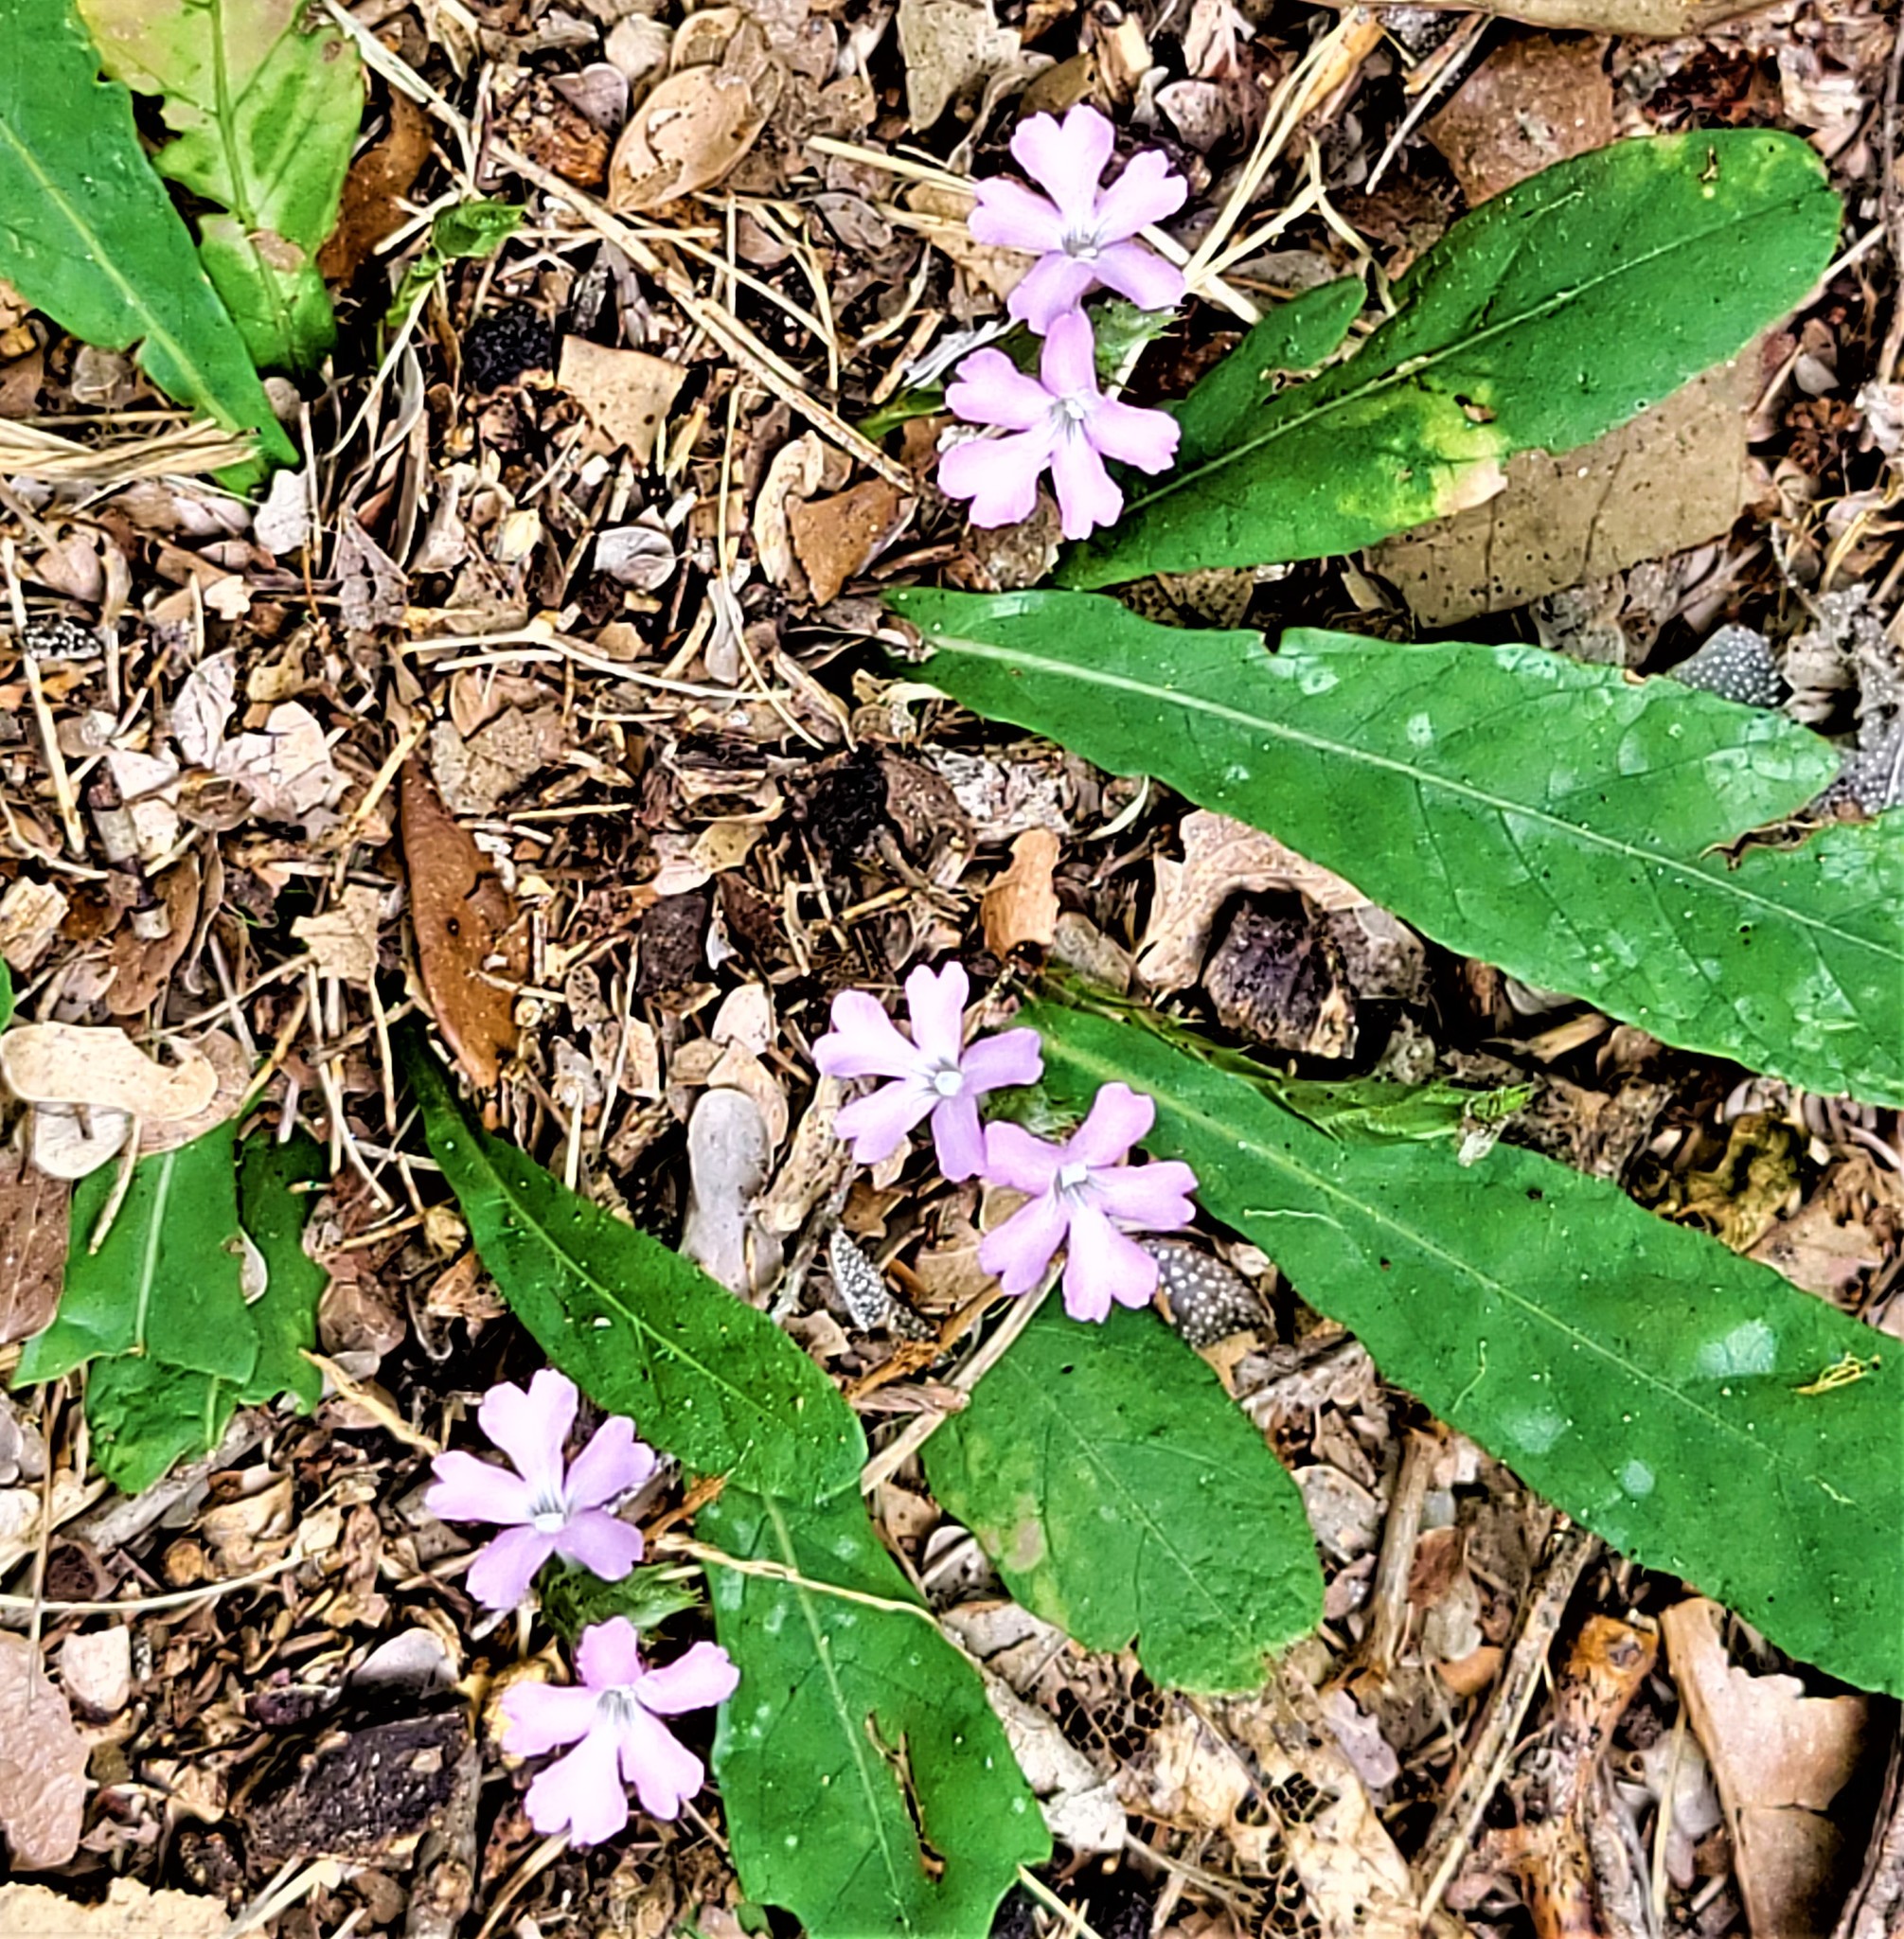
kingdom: Plantae
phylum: Tracheophyta
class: Magnoliopsida
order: Lamiales
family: Acanthaceae
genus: Elytraria
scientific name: Elytraria bromoides
